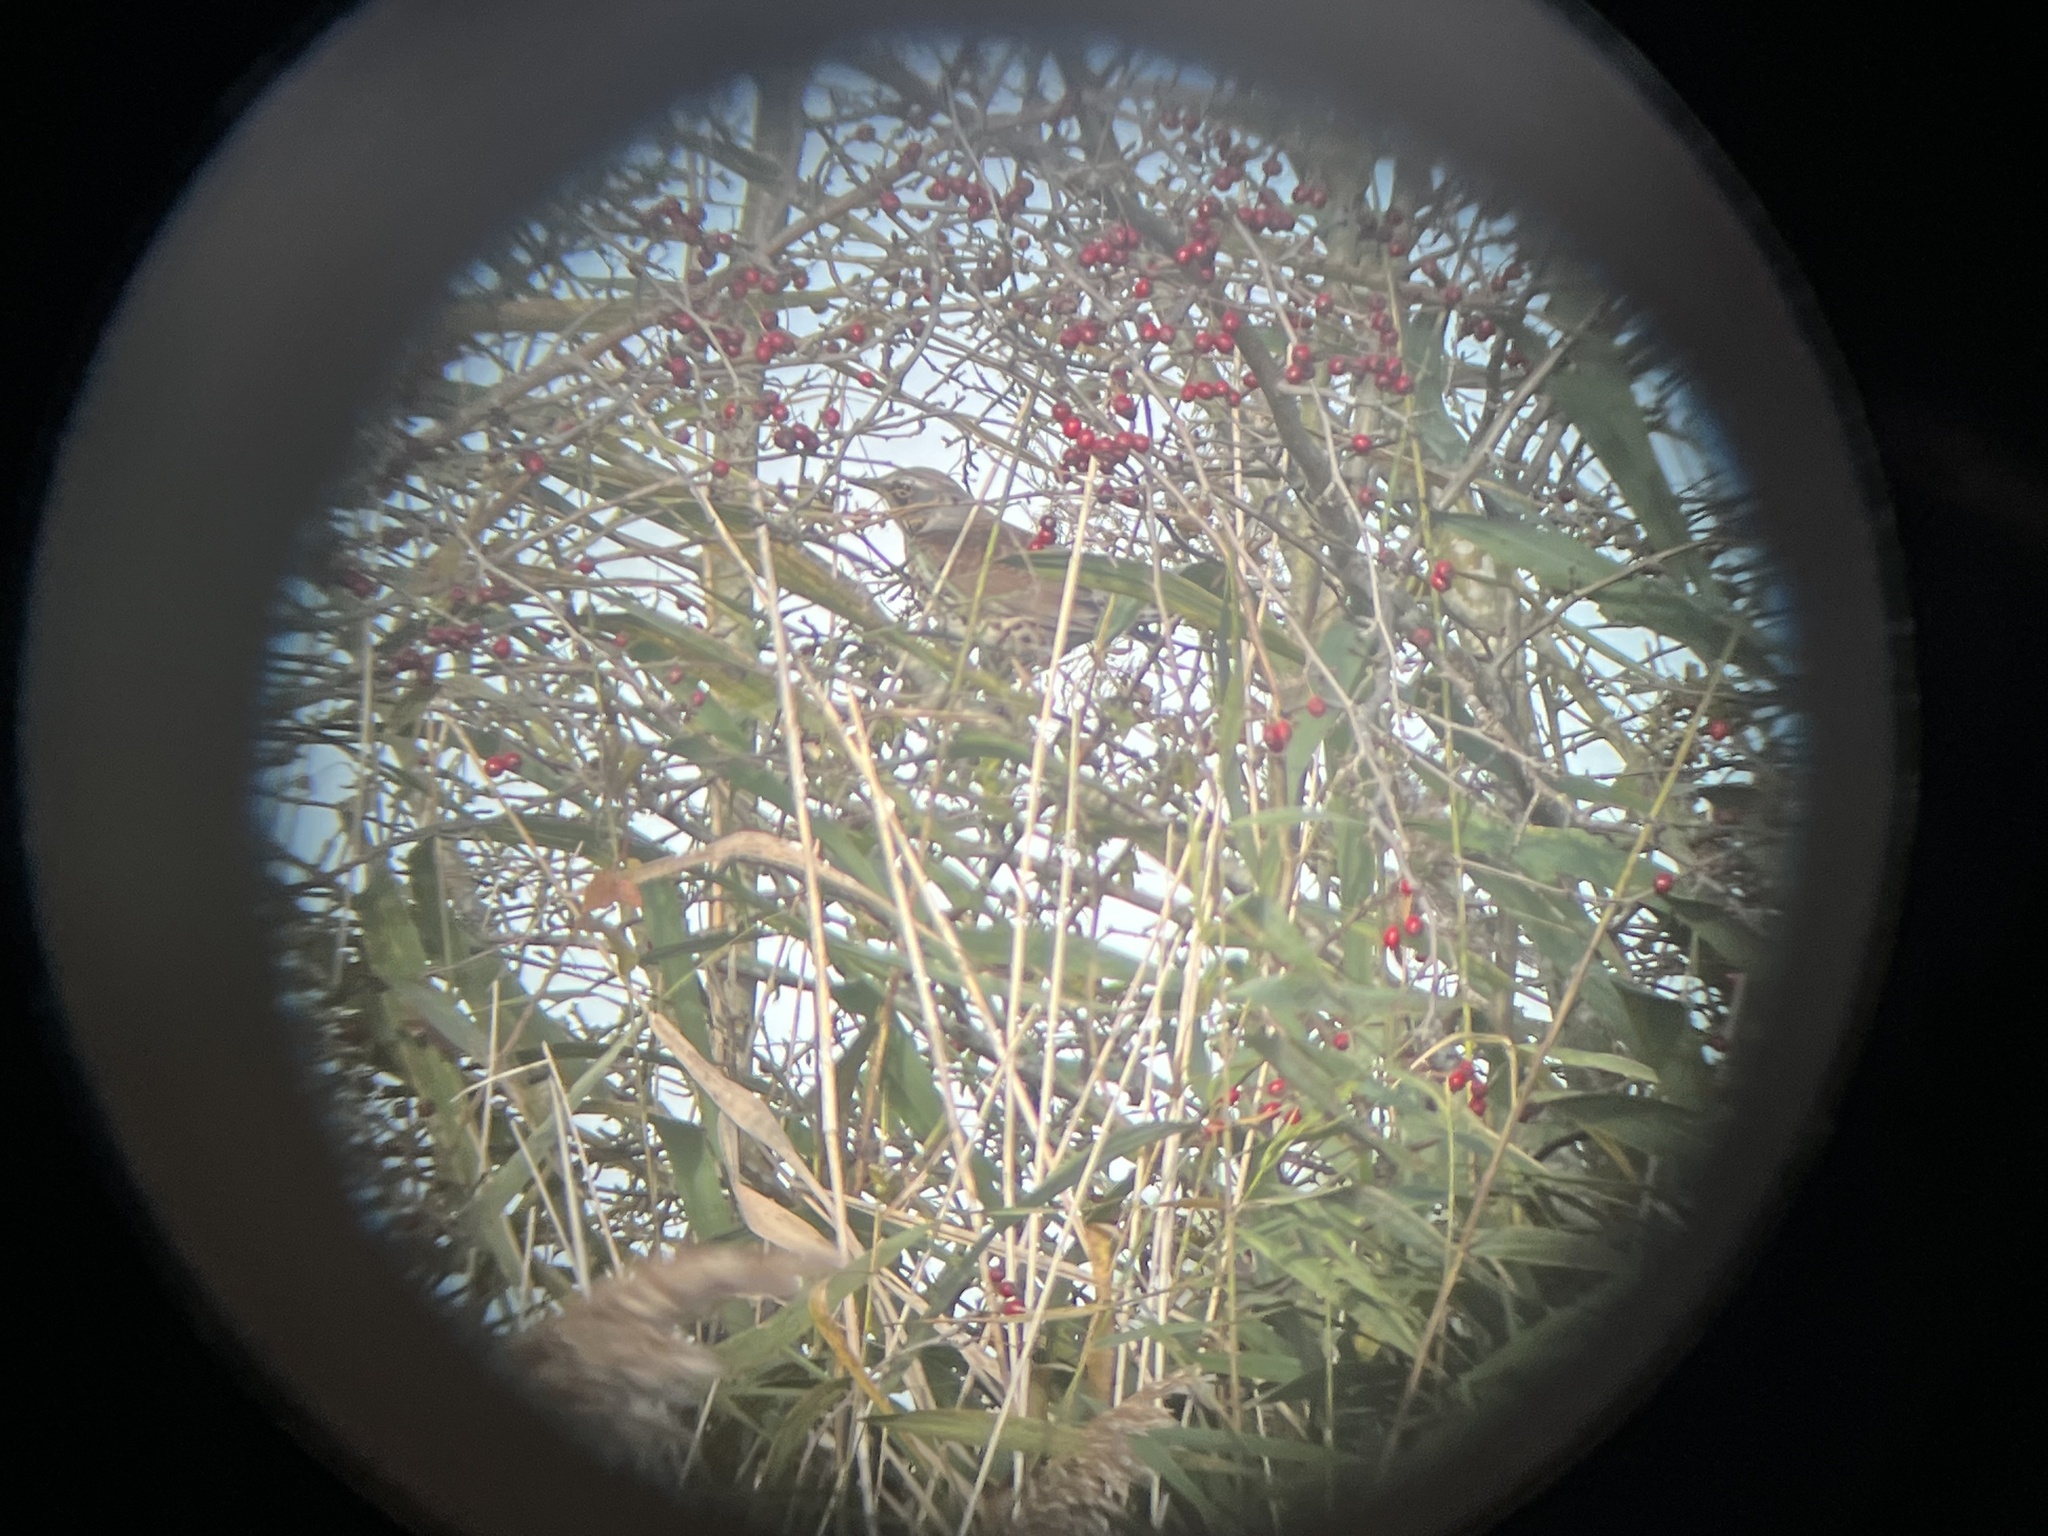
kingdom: Animalia
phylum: Chordata
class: Aves
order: Passeriformes
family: Turdidae
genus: Turdus
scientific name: Turdus pilaris
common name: Fieldfare
